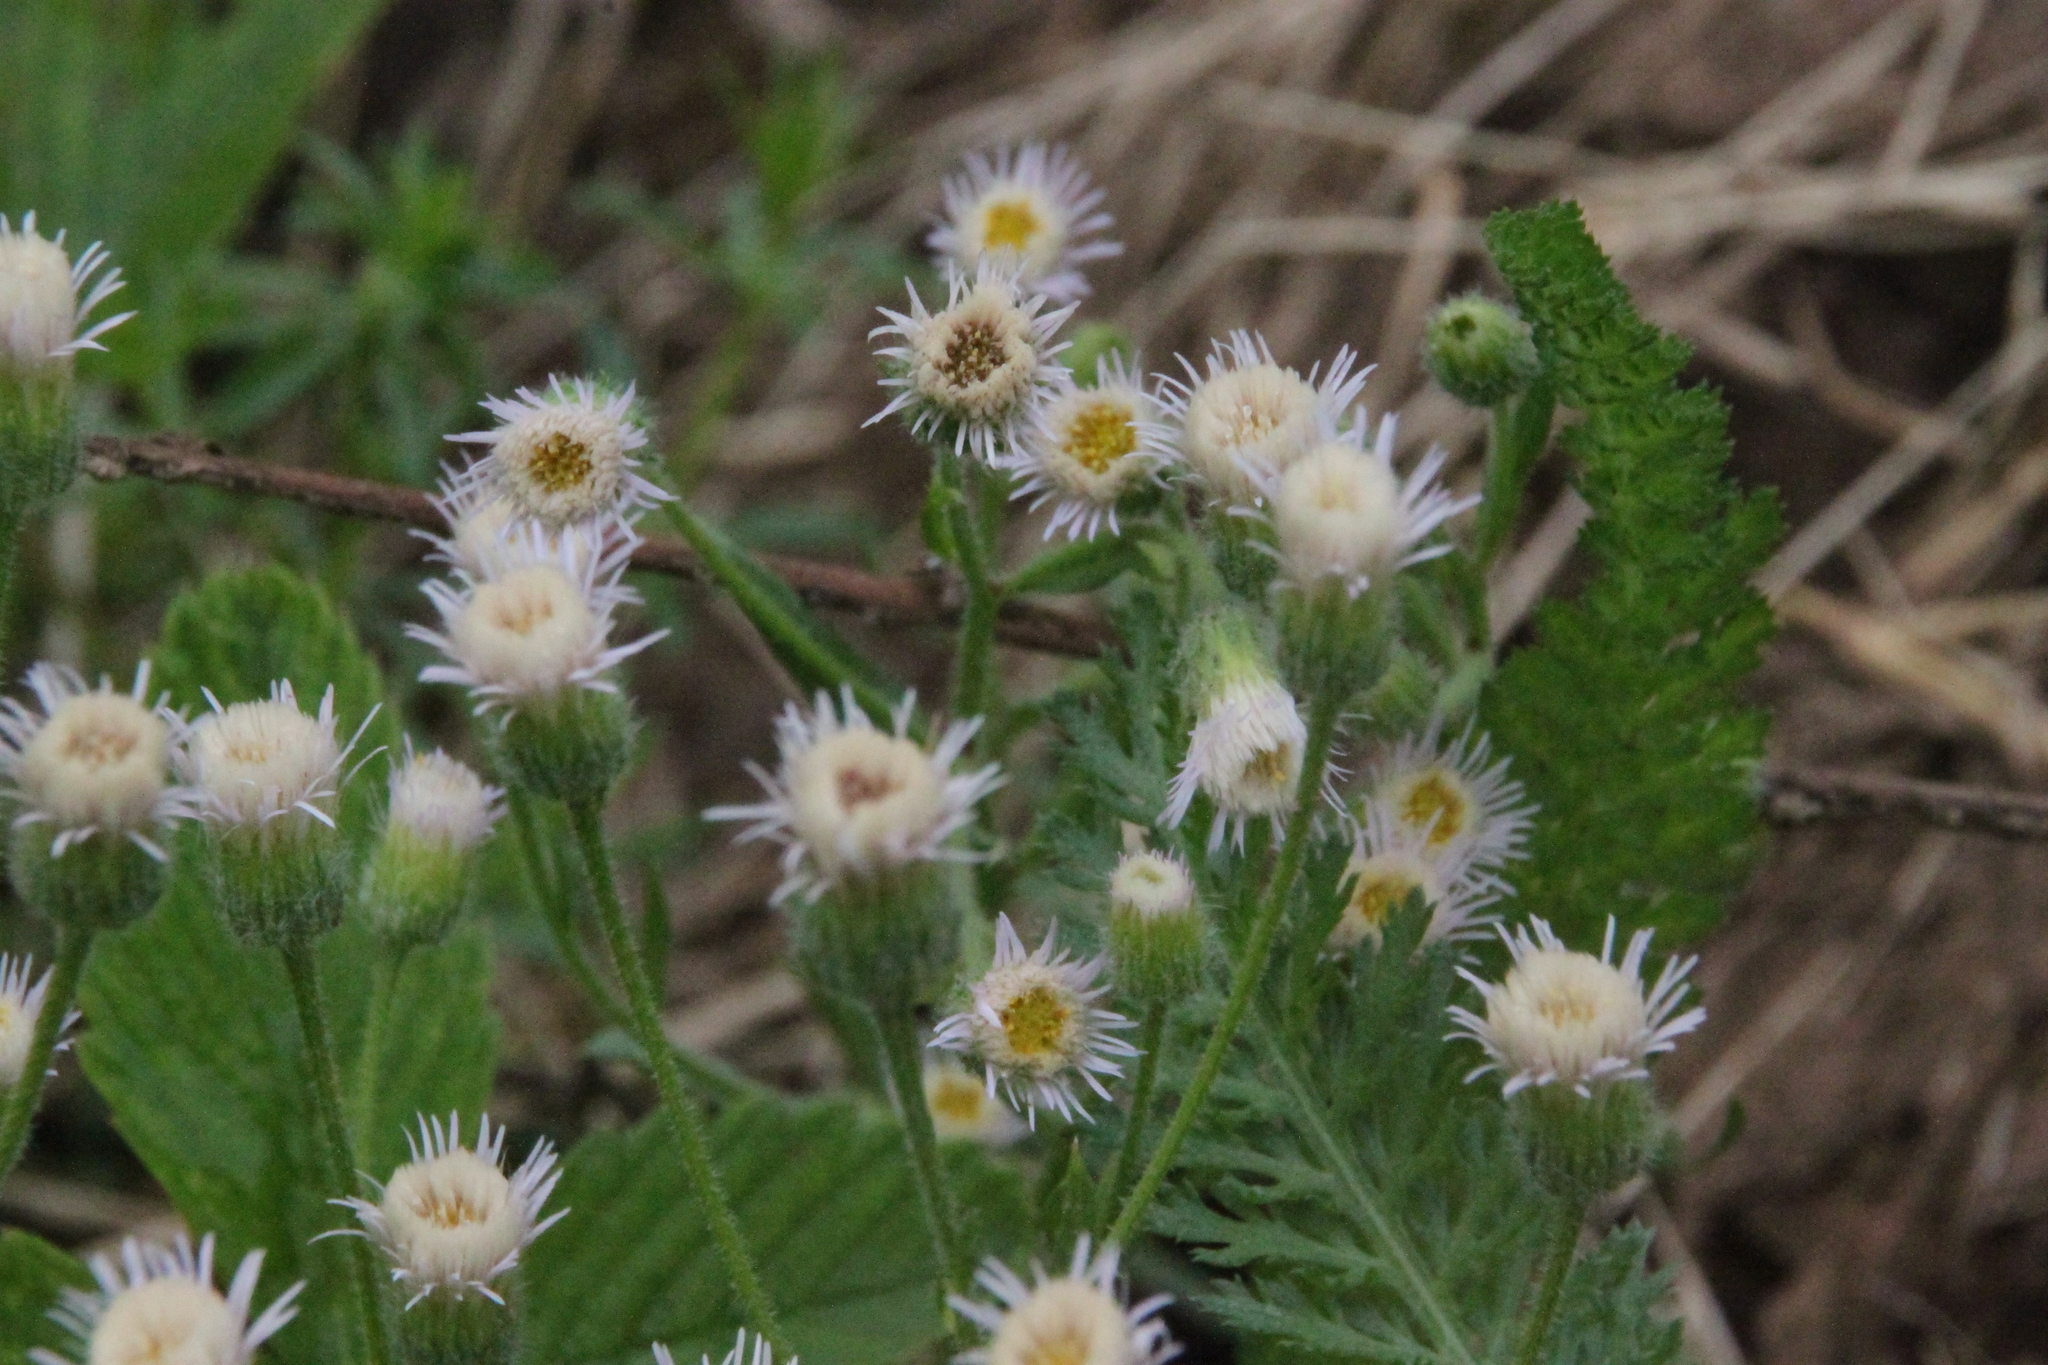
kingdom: Plantae
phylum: Tracheophyta
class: Magnoliopsida
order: Asterales
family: Asteraceae
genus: Erigeron
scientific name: Erigeron acris
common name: Blue fleabane
